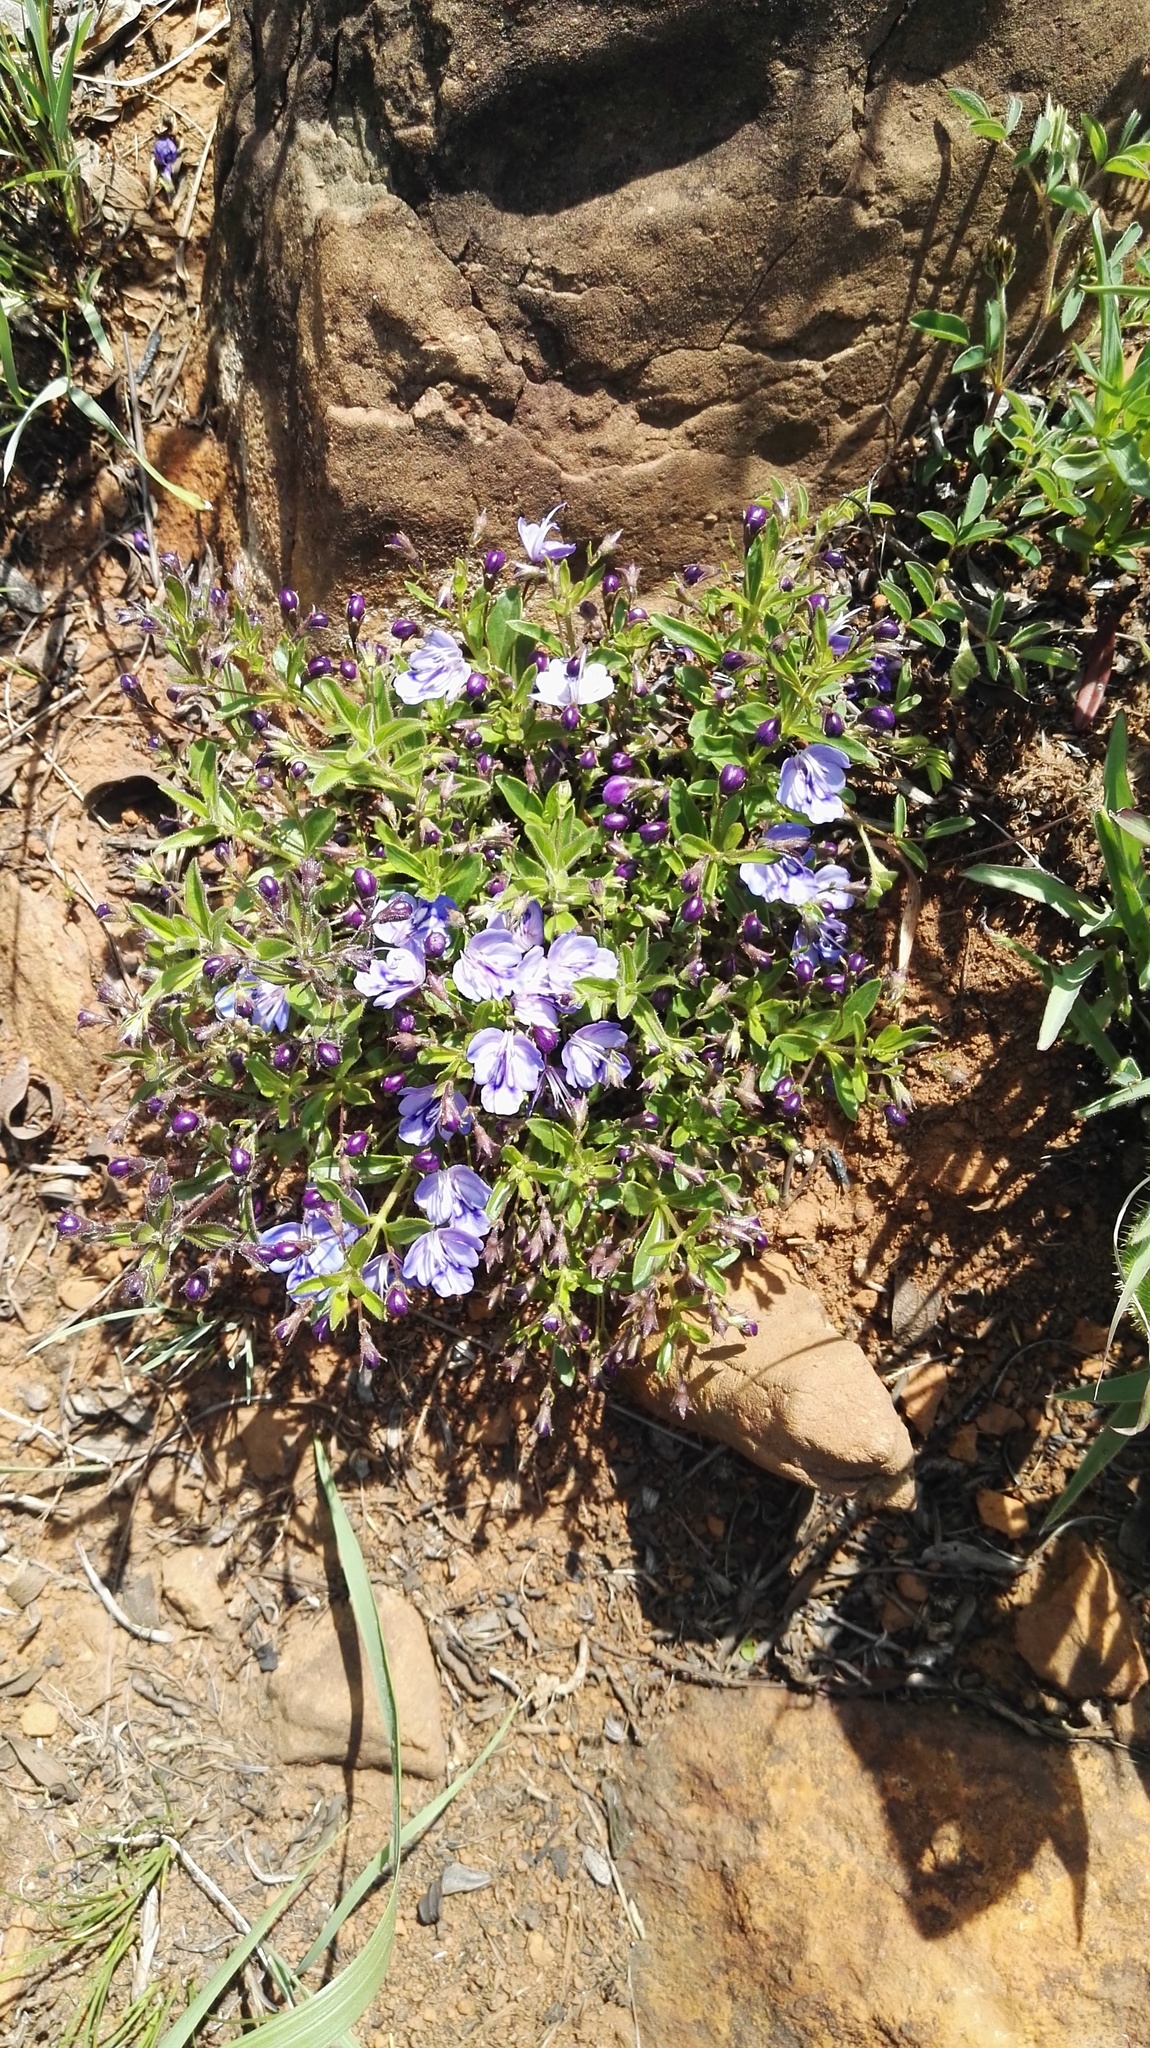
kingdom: Plantae
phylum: Tracheophyta
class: Magnoliopsida
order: Lamiales
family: Lamiaceae
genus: Rotheca
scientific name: Rotheca hirsuta
